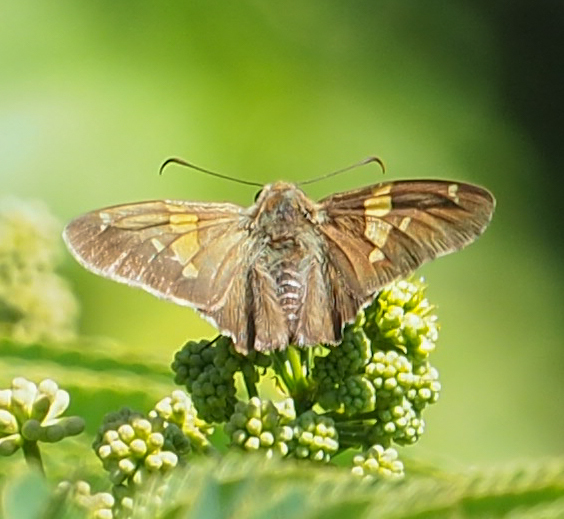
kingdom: Animalia
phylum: Arthropoda
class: Insecta
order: Lepidoptera
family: Hesperiidae
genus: Epargyreus
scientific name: Epargyreus clarus
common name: Silver-spotted skipper
